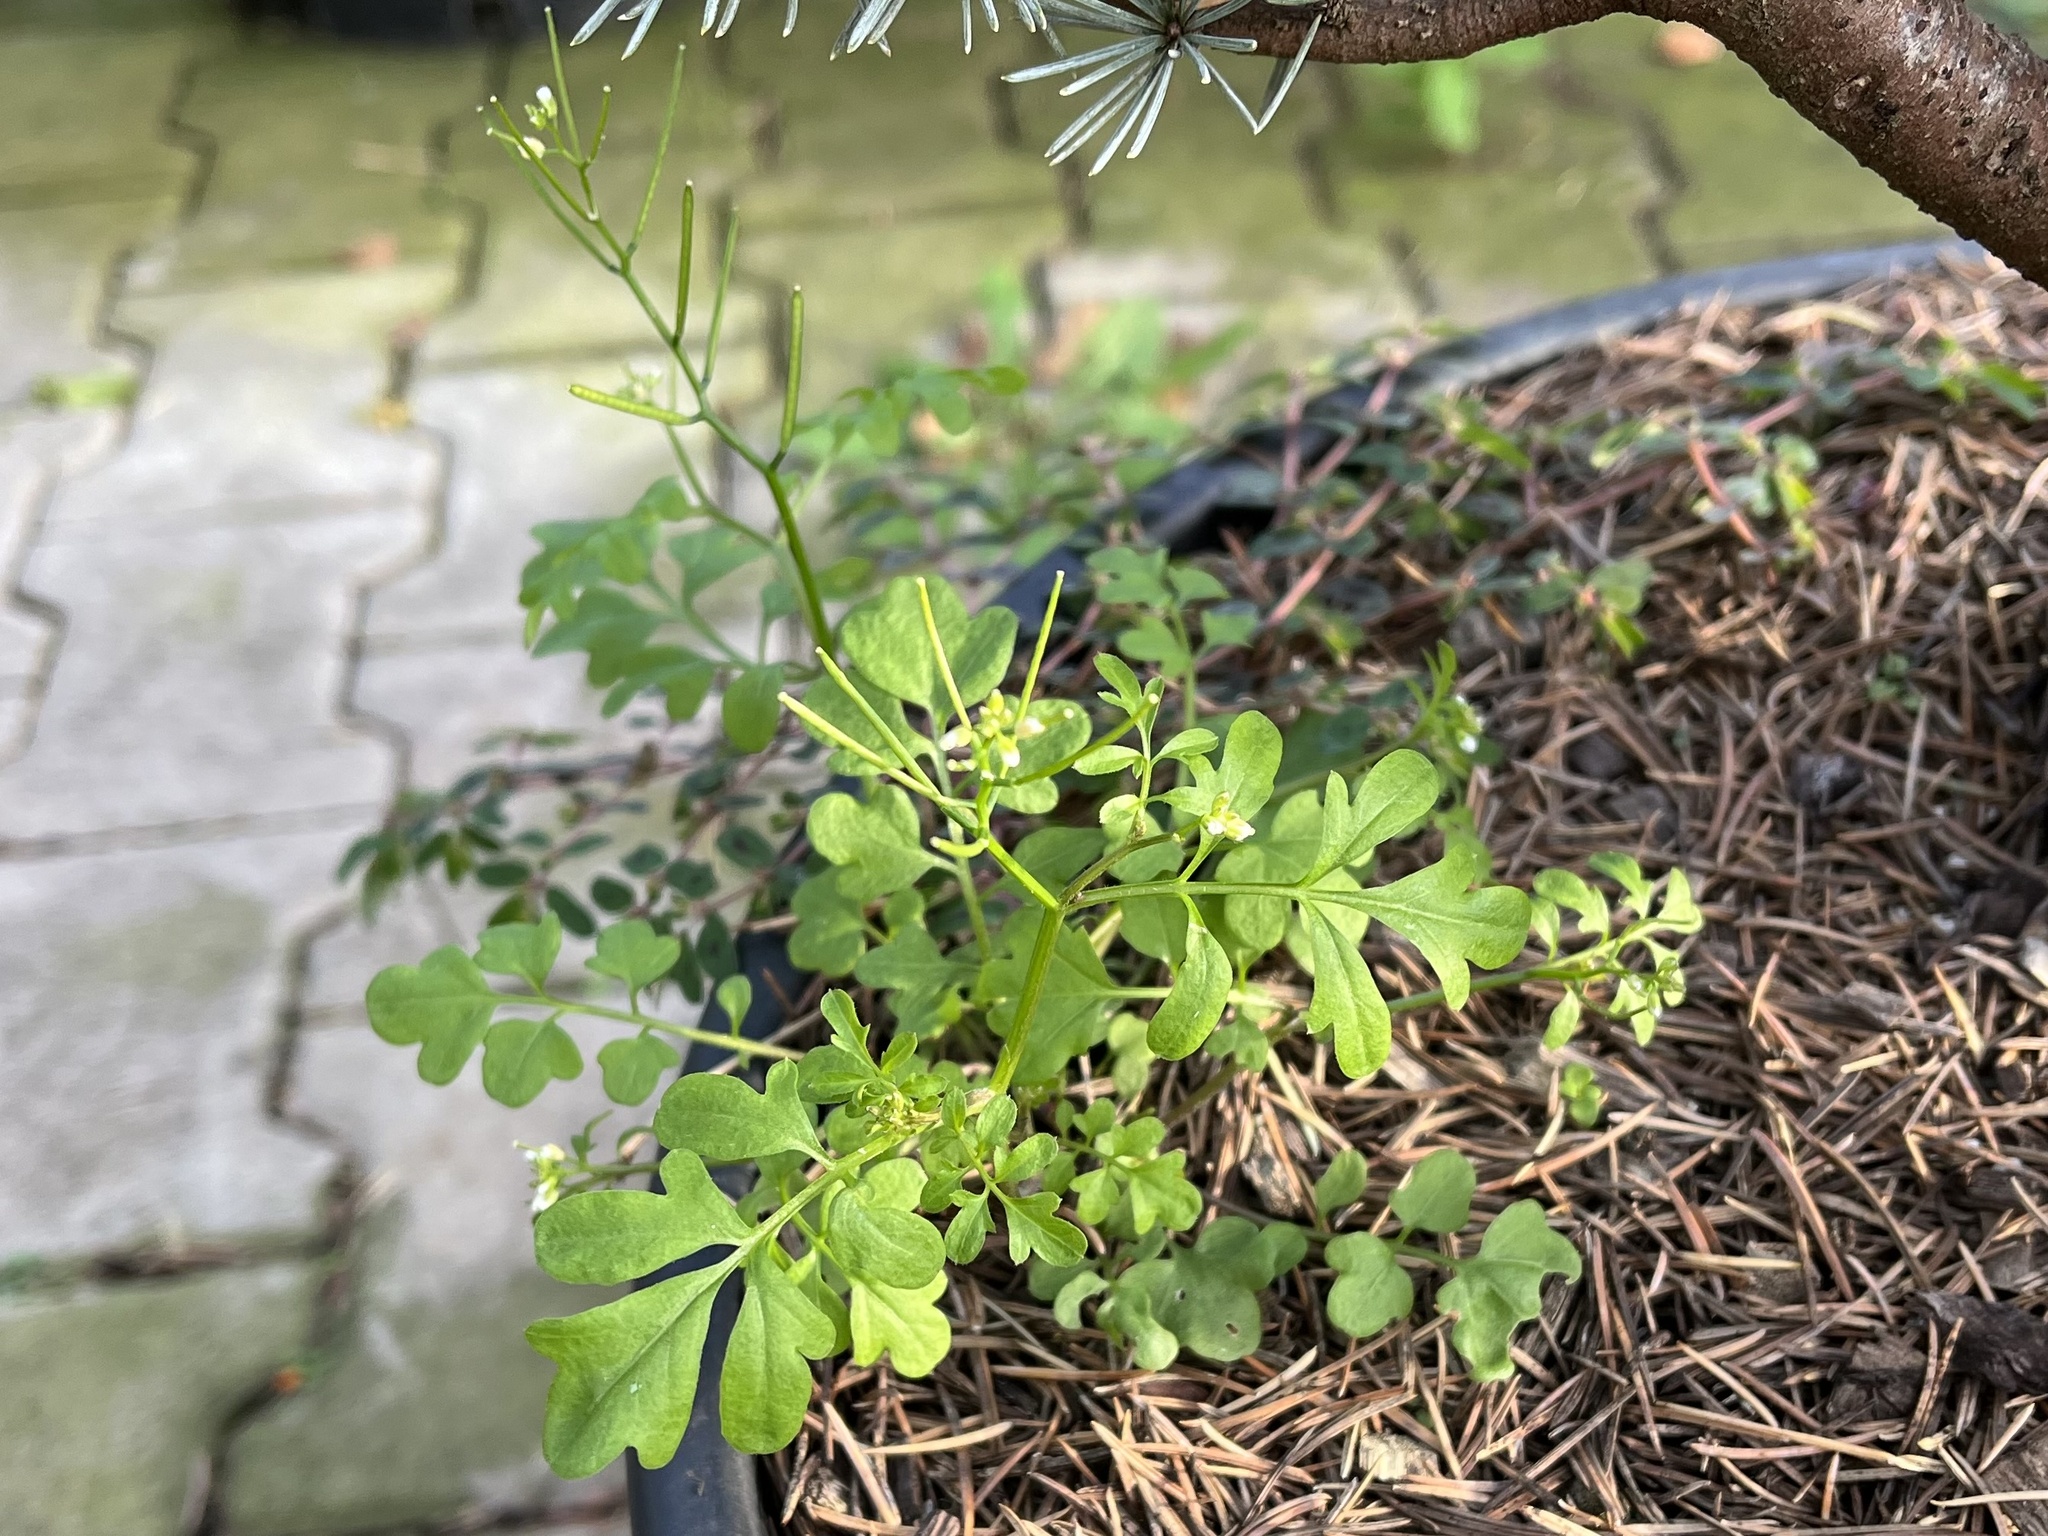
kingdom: Plantae
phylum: Tracheophyta
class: Magnoliopsida
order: Brassicales
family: Brassicaceae
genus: Cardamine
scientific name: Cardamine occulta
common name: Asian wavy bittercress
